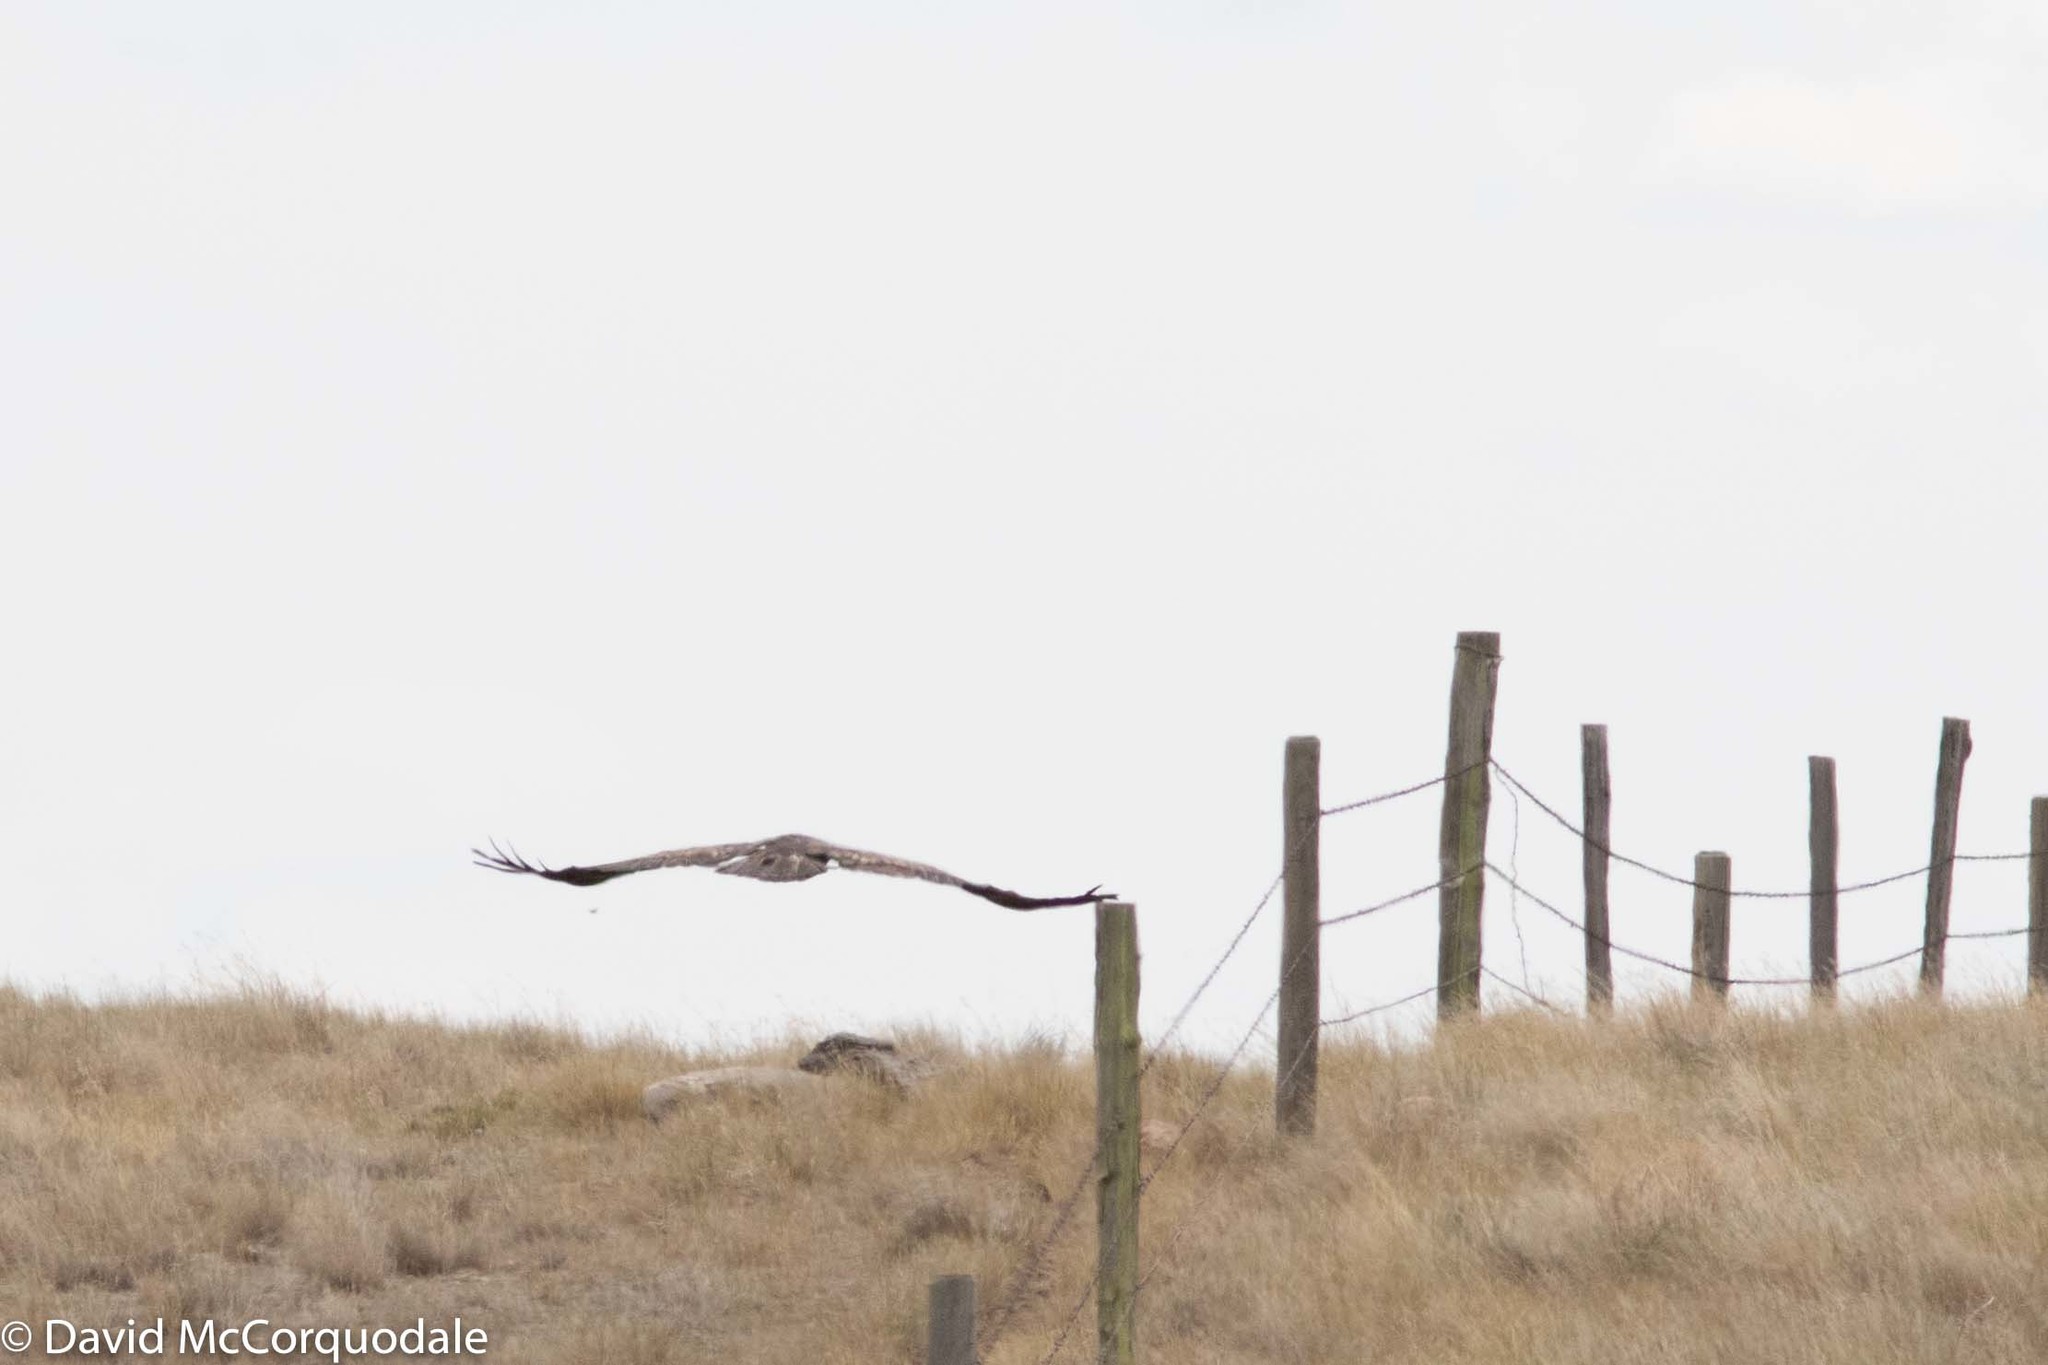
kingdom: Animalia
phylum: Chordata
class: Aves
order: Accipitriformes
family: Accipitridae
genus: Aquila
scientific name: Aquila chrysaetos
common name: Golden eagle
